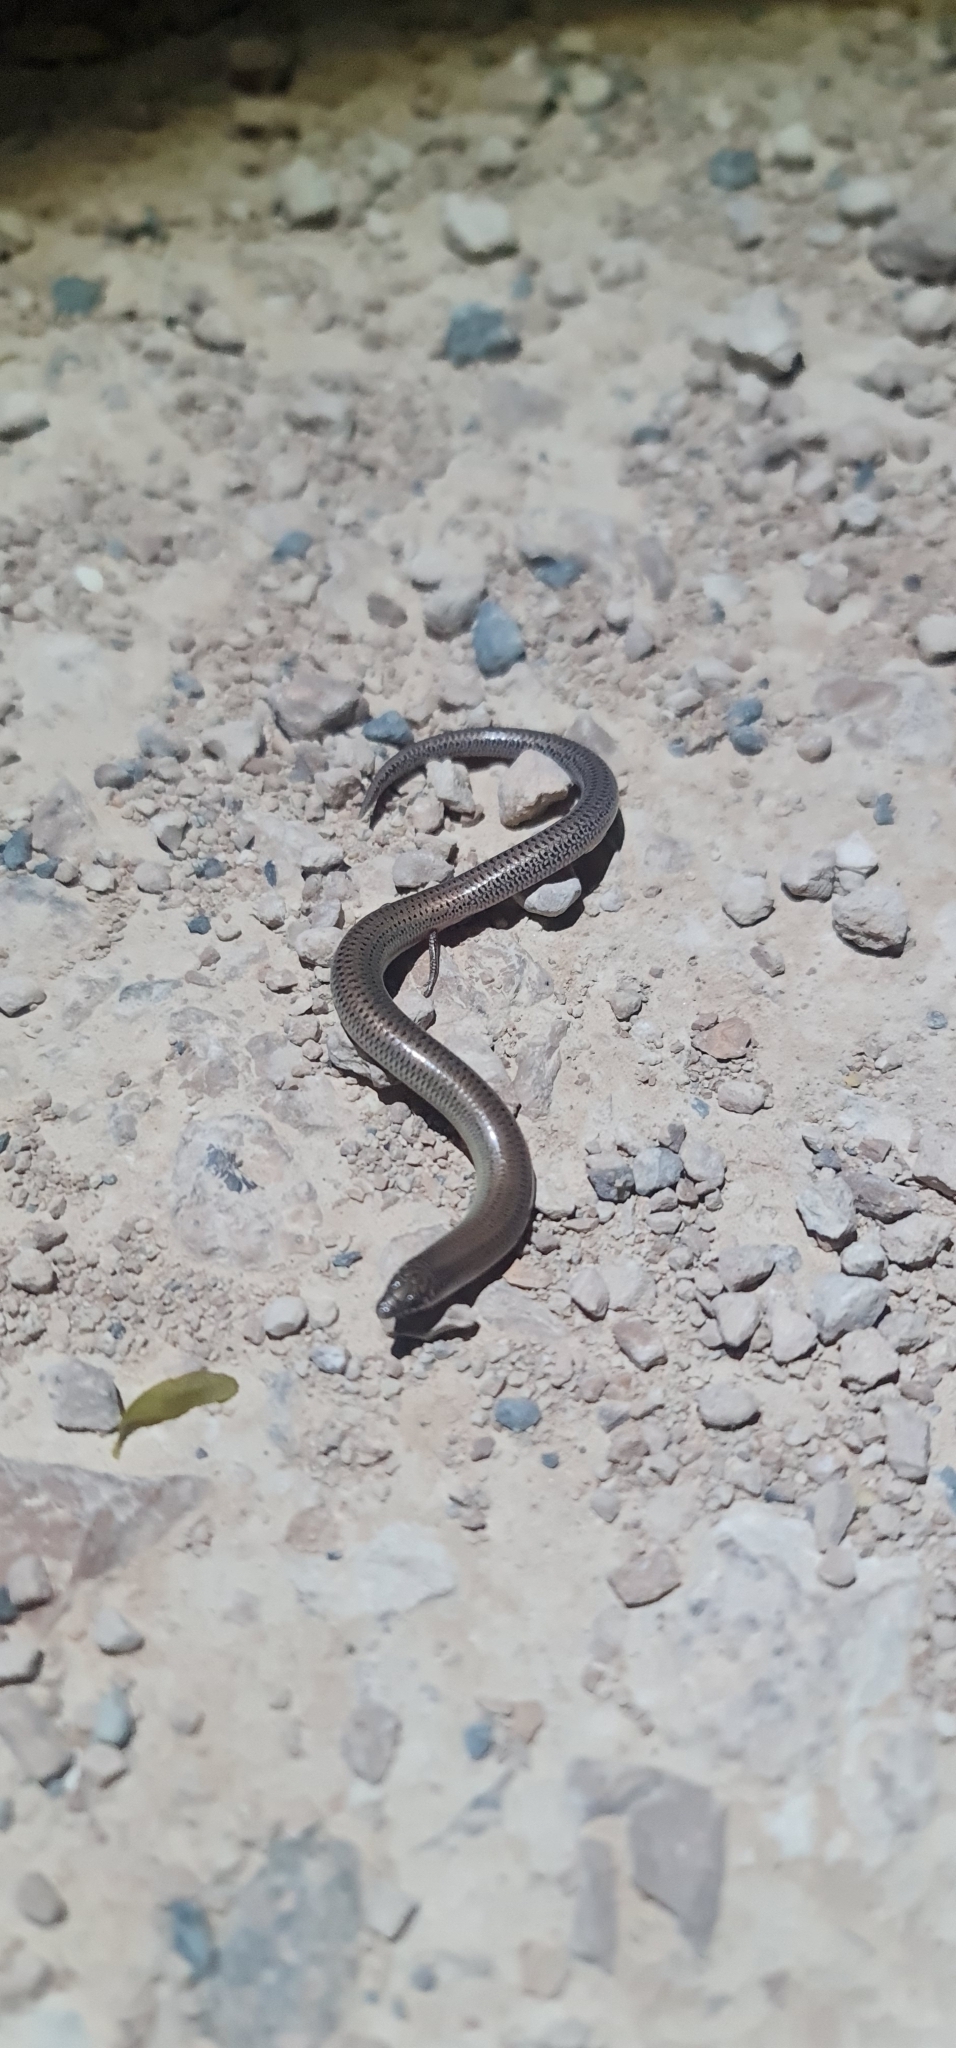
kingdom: Animalia
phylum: Chordata
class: Squamata
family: Scincidae
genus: Lerista
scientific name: Lerista punctatovittata
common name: Eastern robust slider
